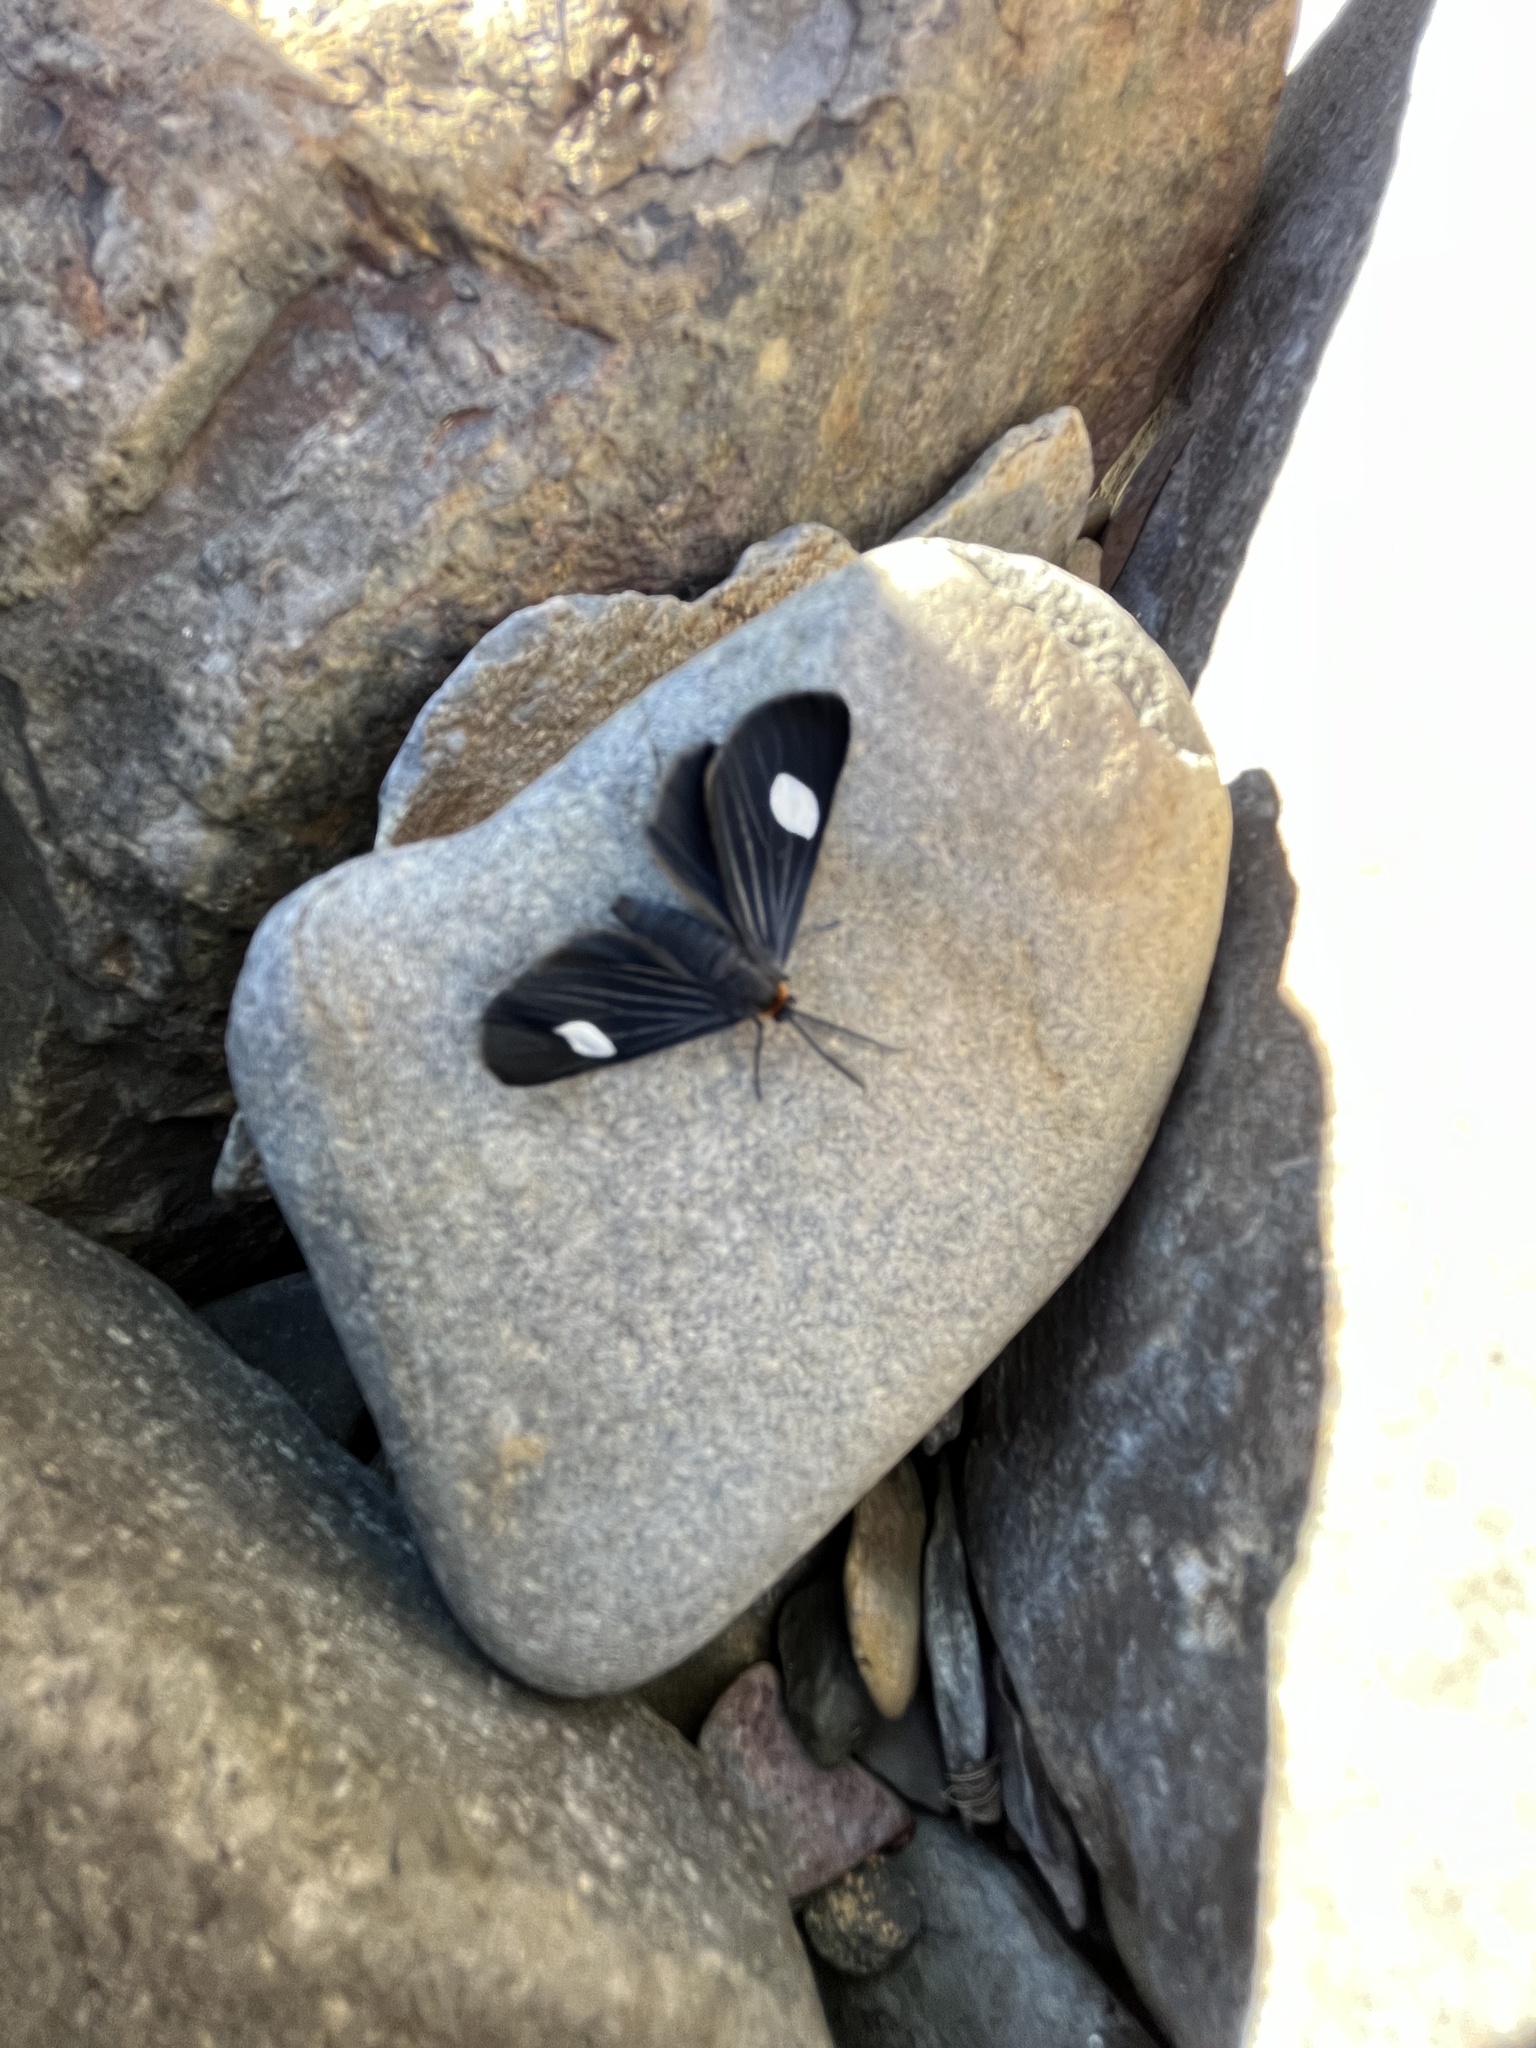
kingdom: Animalia
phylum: Arthropoda
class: Insecta
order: Lepidoptera
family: Geometridae
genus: Melanchroia
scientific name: Melanchroia aterea
